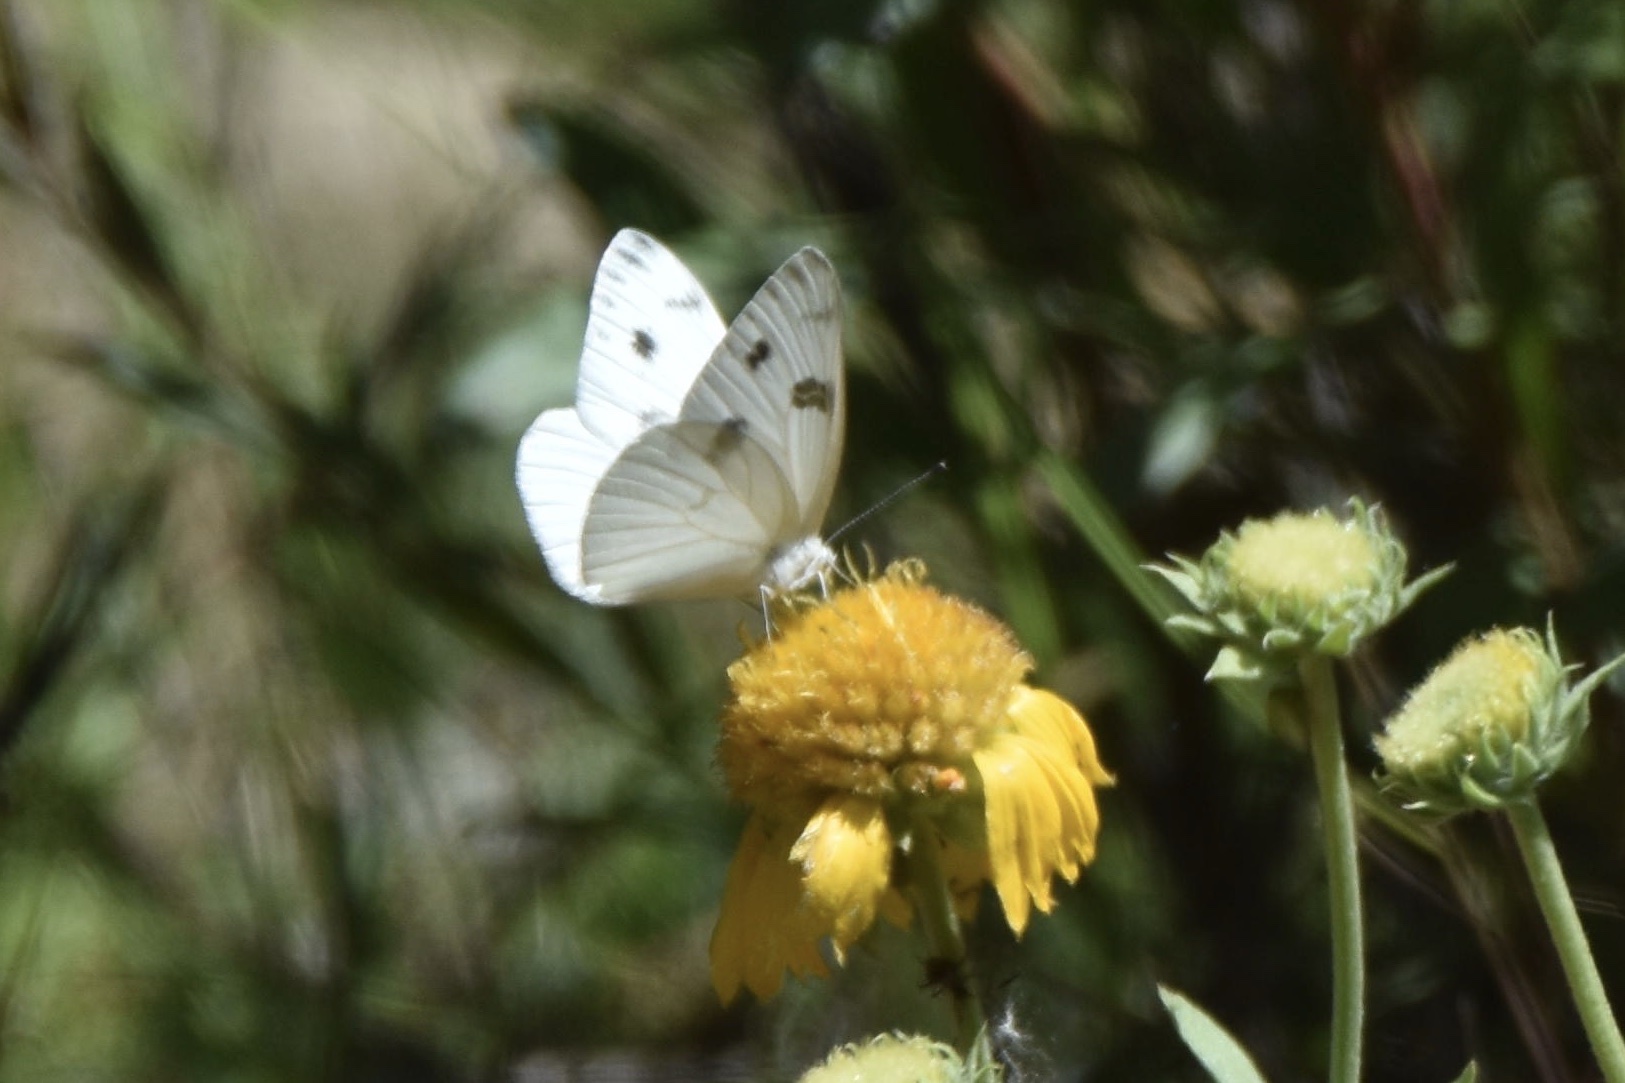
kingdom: Animalia
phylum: Arthropoda
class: Insecta
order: Lepidoptera
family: Pieridae
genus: Pontia
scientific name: Pontia protodice
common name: Checkered white
